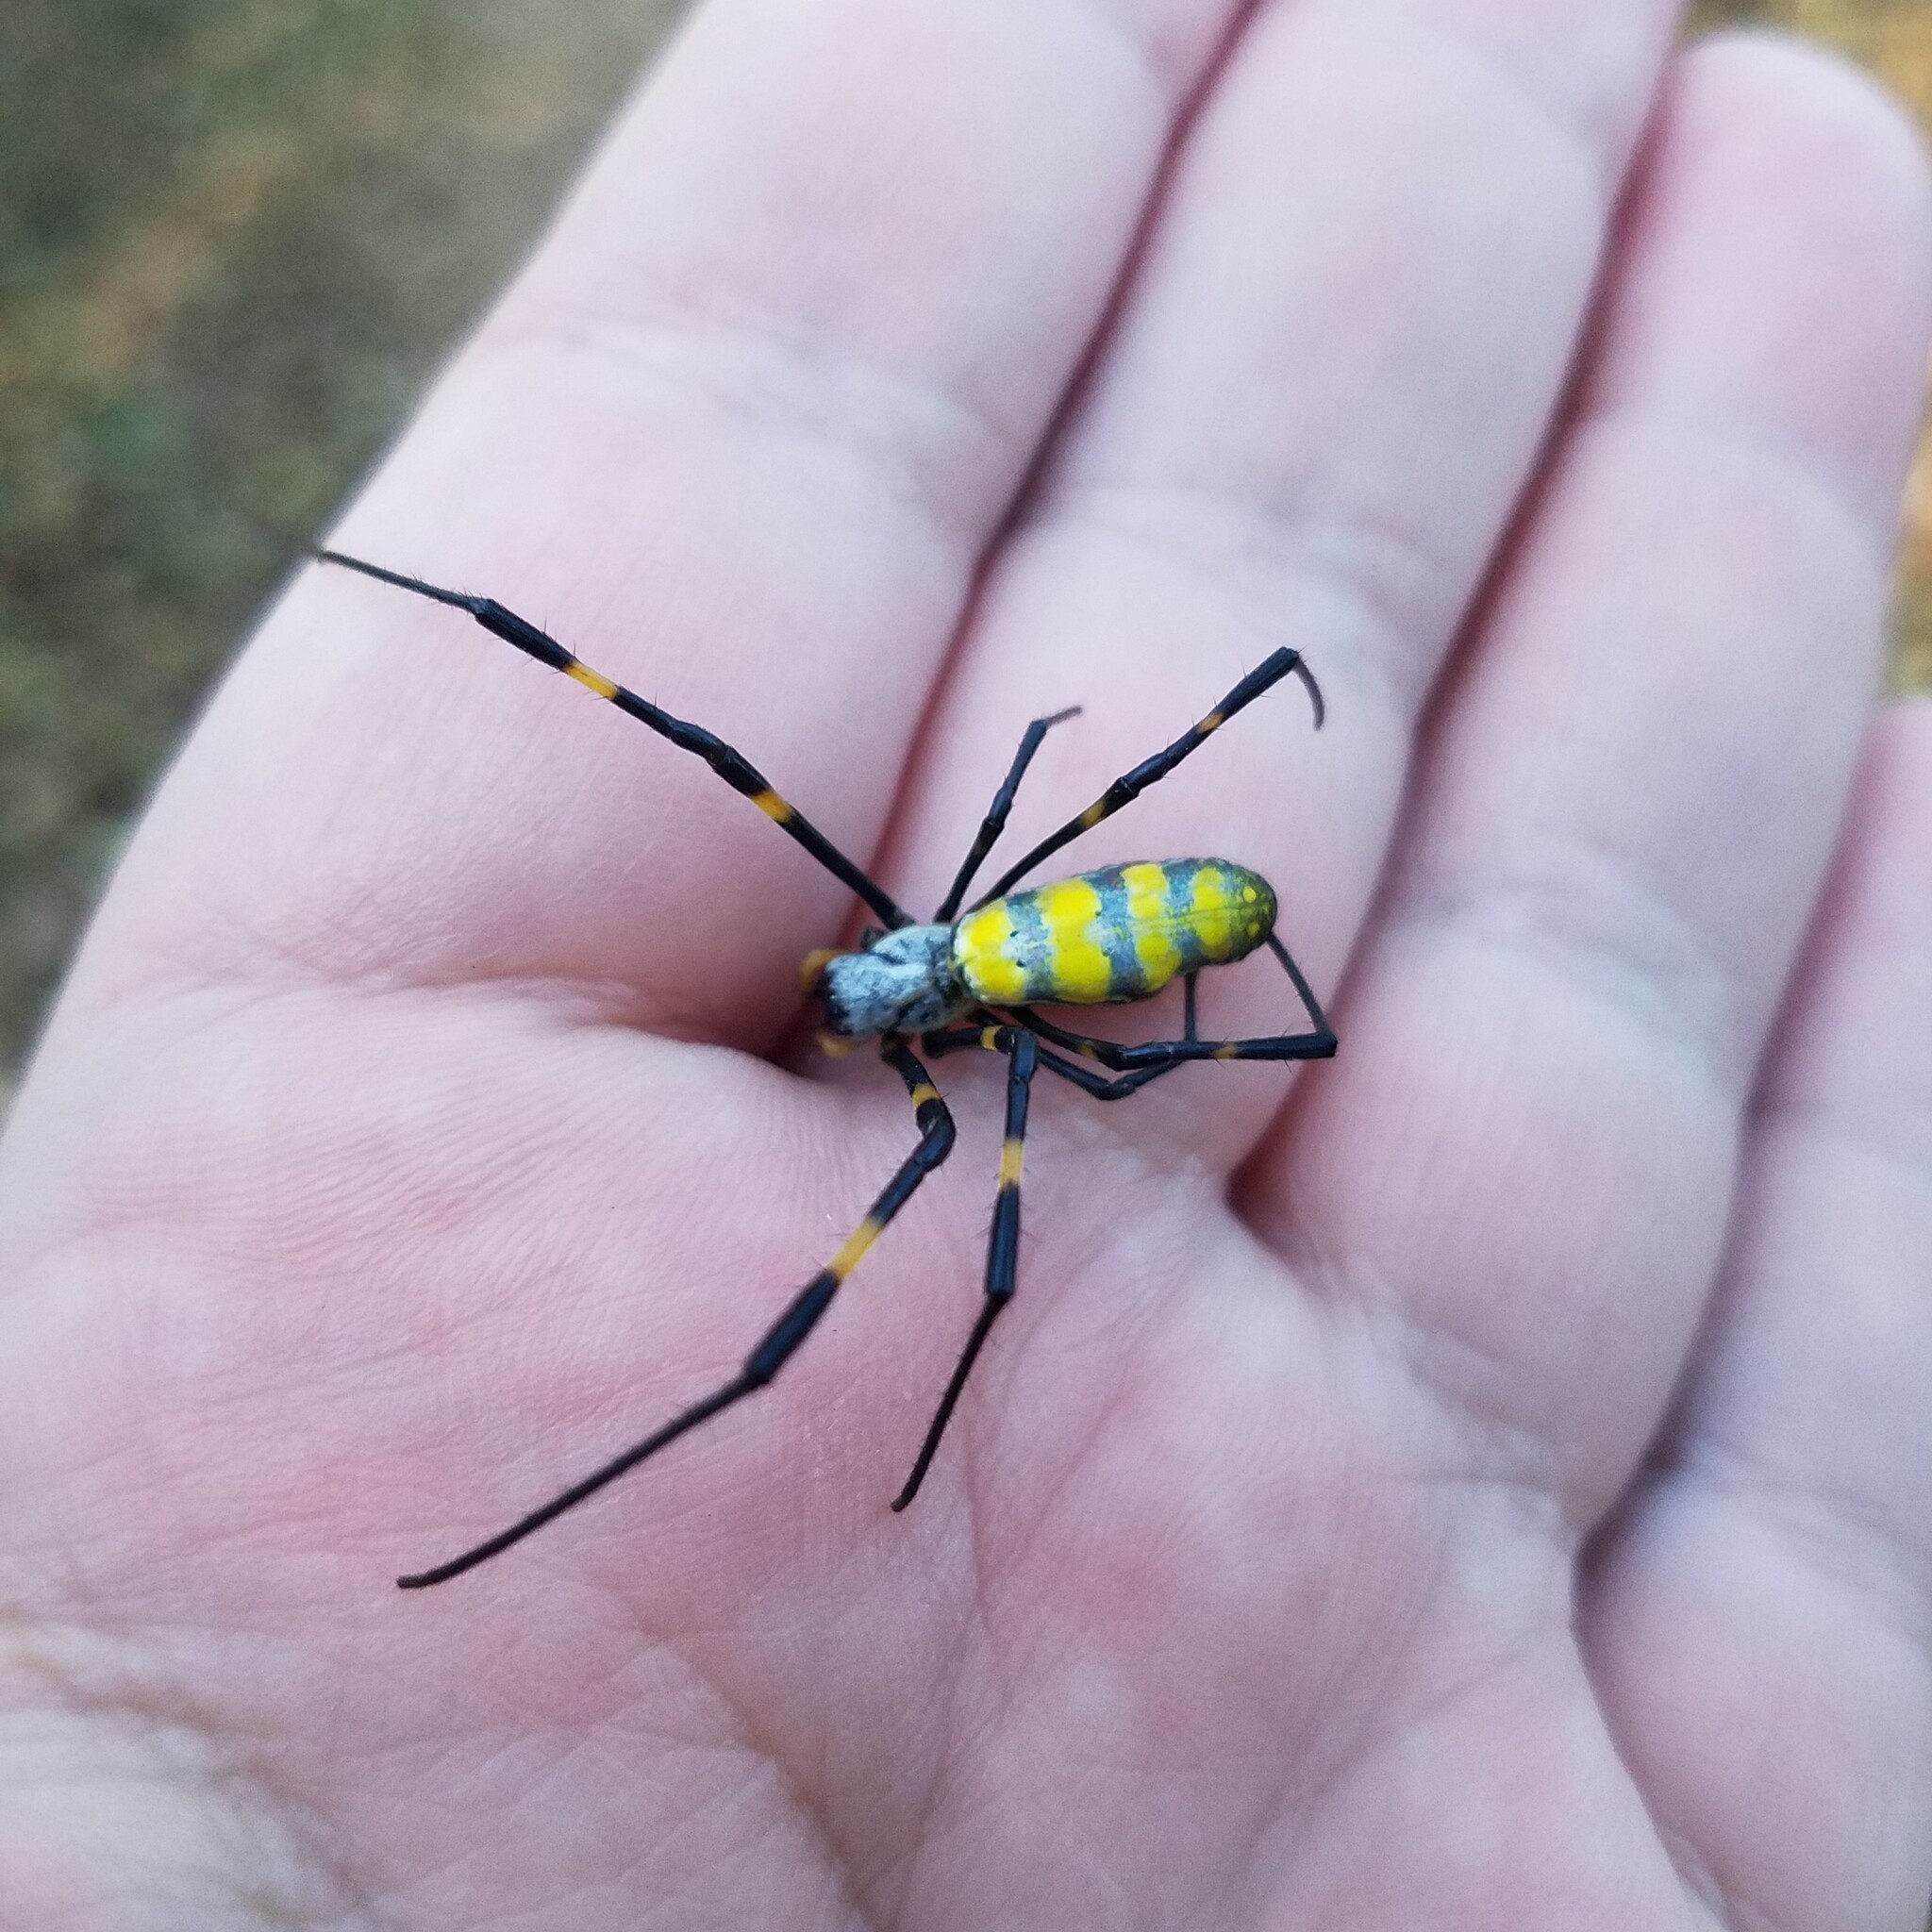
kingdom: Animalia
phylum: Arthropoda
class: Arachnida
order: Araneae
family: Araneidae
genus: Trichonephila
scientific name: Trichonephila clavata
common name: Jorō spider
